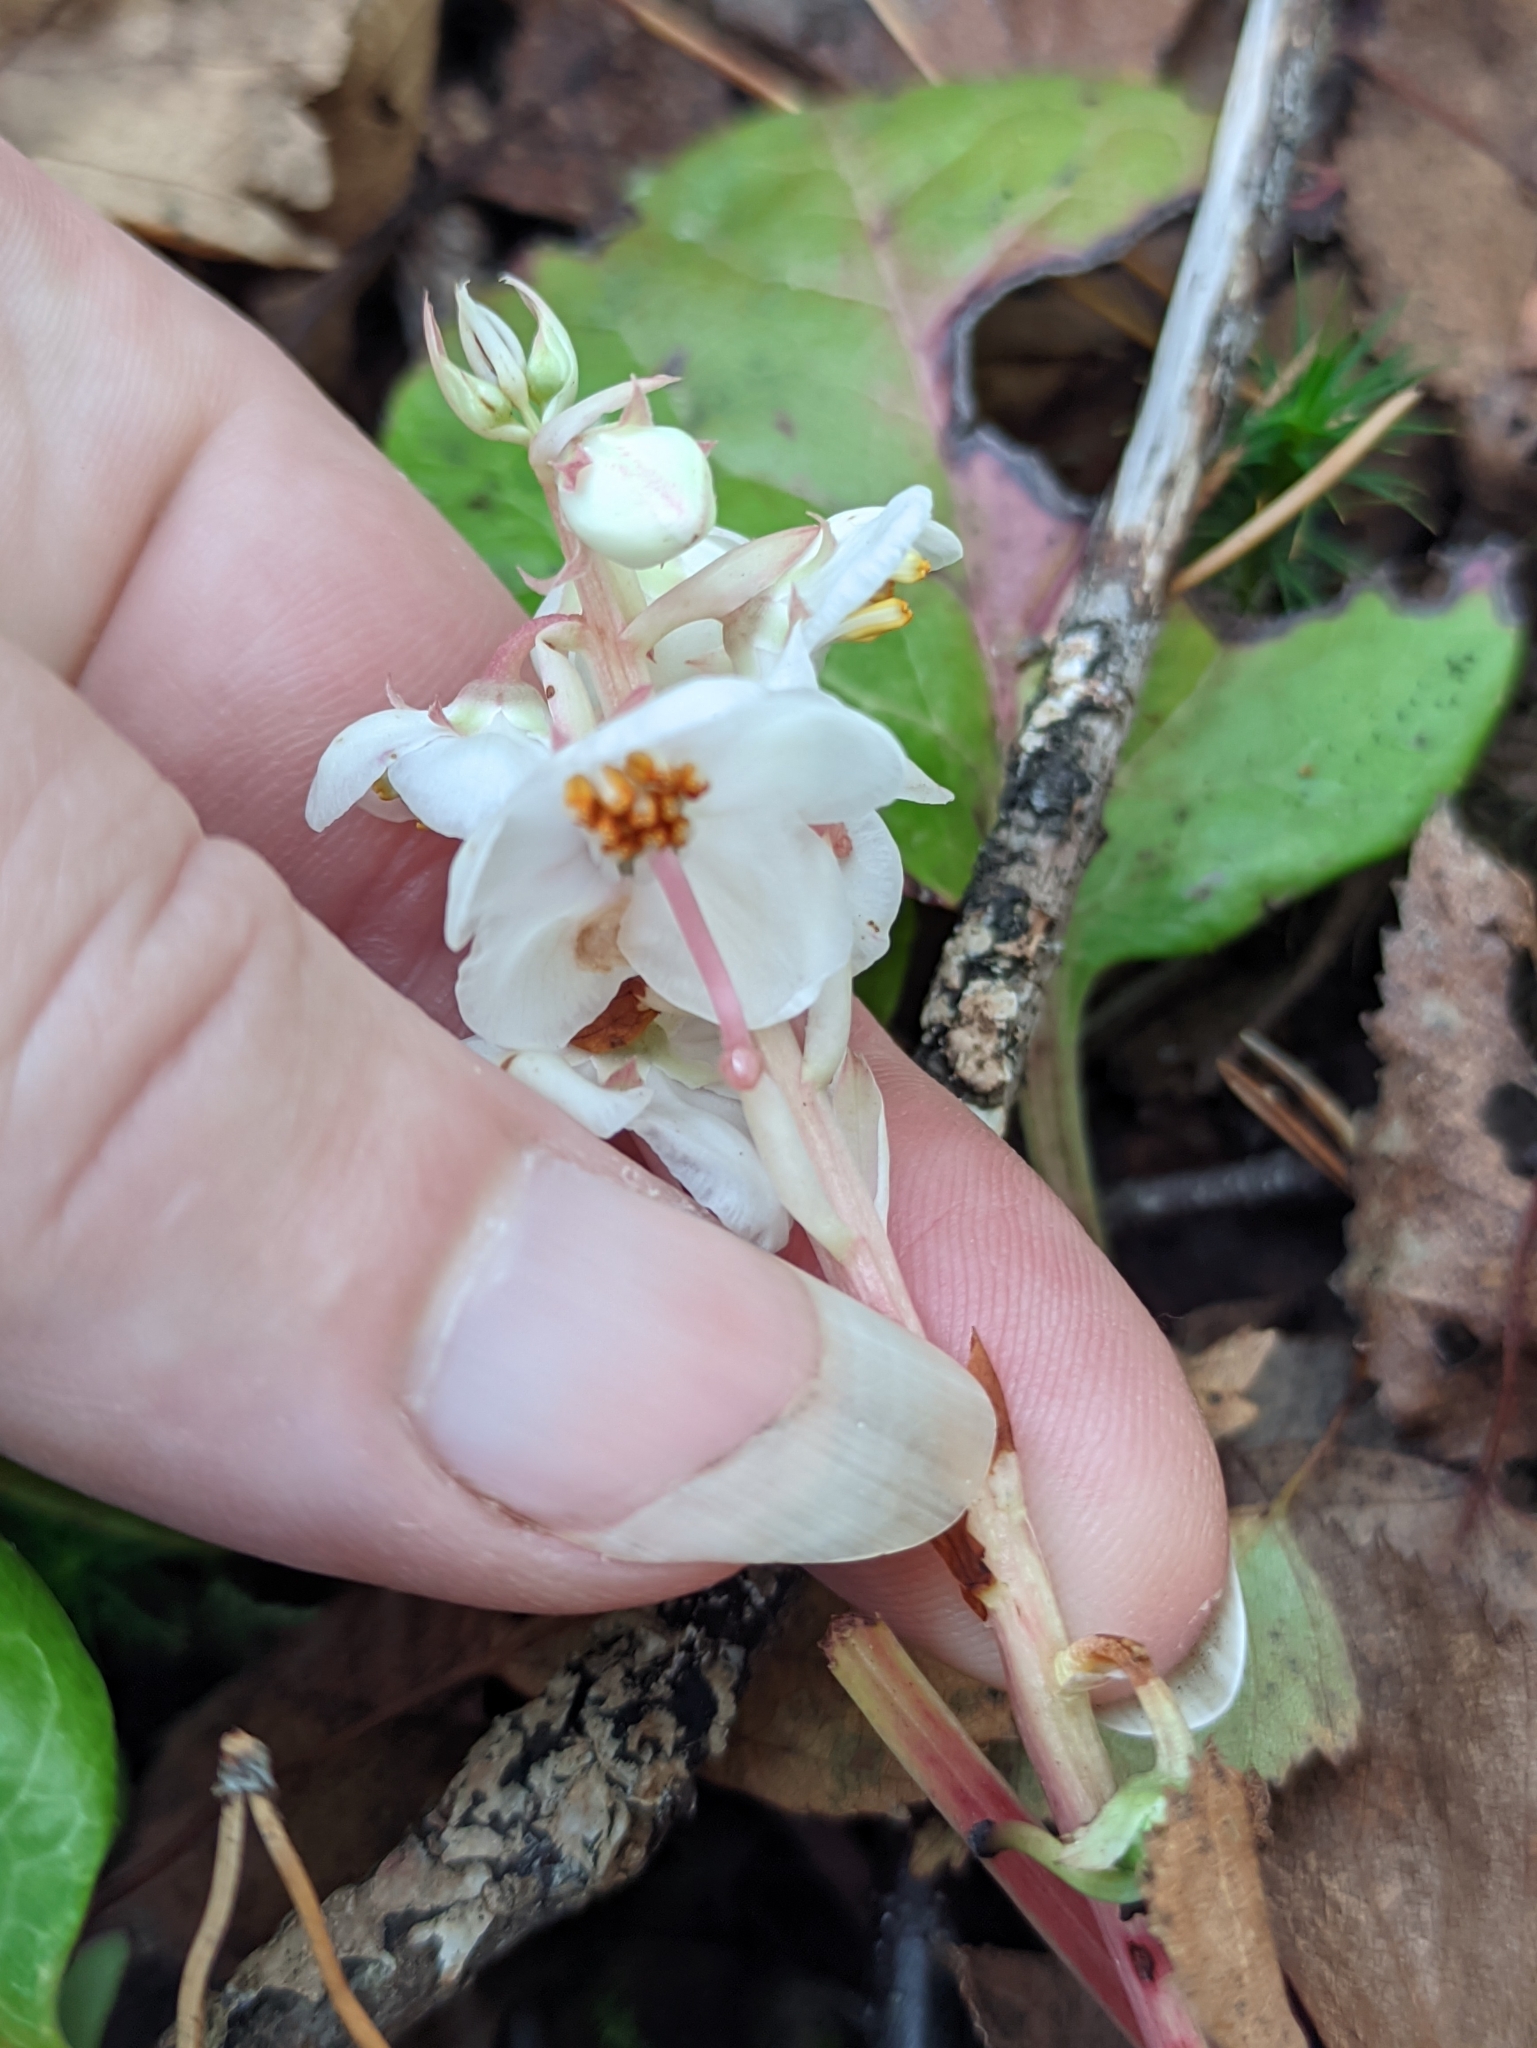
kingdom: Plantae
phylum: Tracheophyta
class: Magnoliopsida
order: Ericales
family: Ericaceae
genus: Pyrola
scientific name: Pyrola rotundifolia
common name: Round-leaved wintergreen
